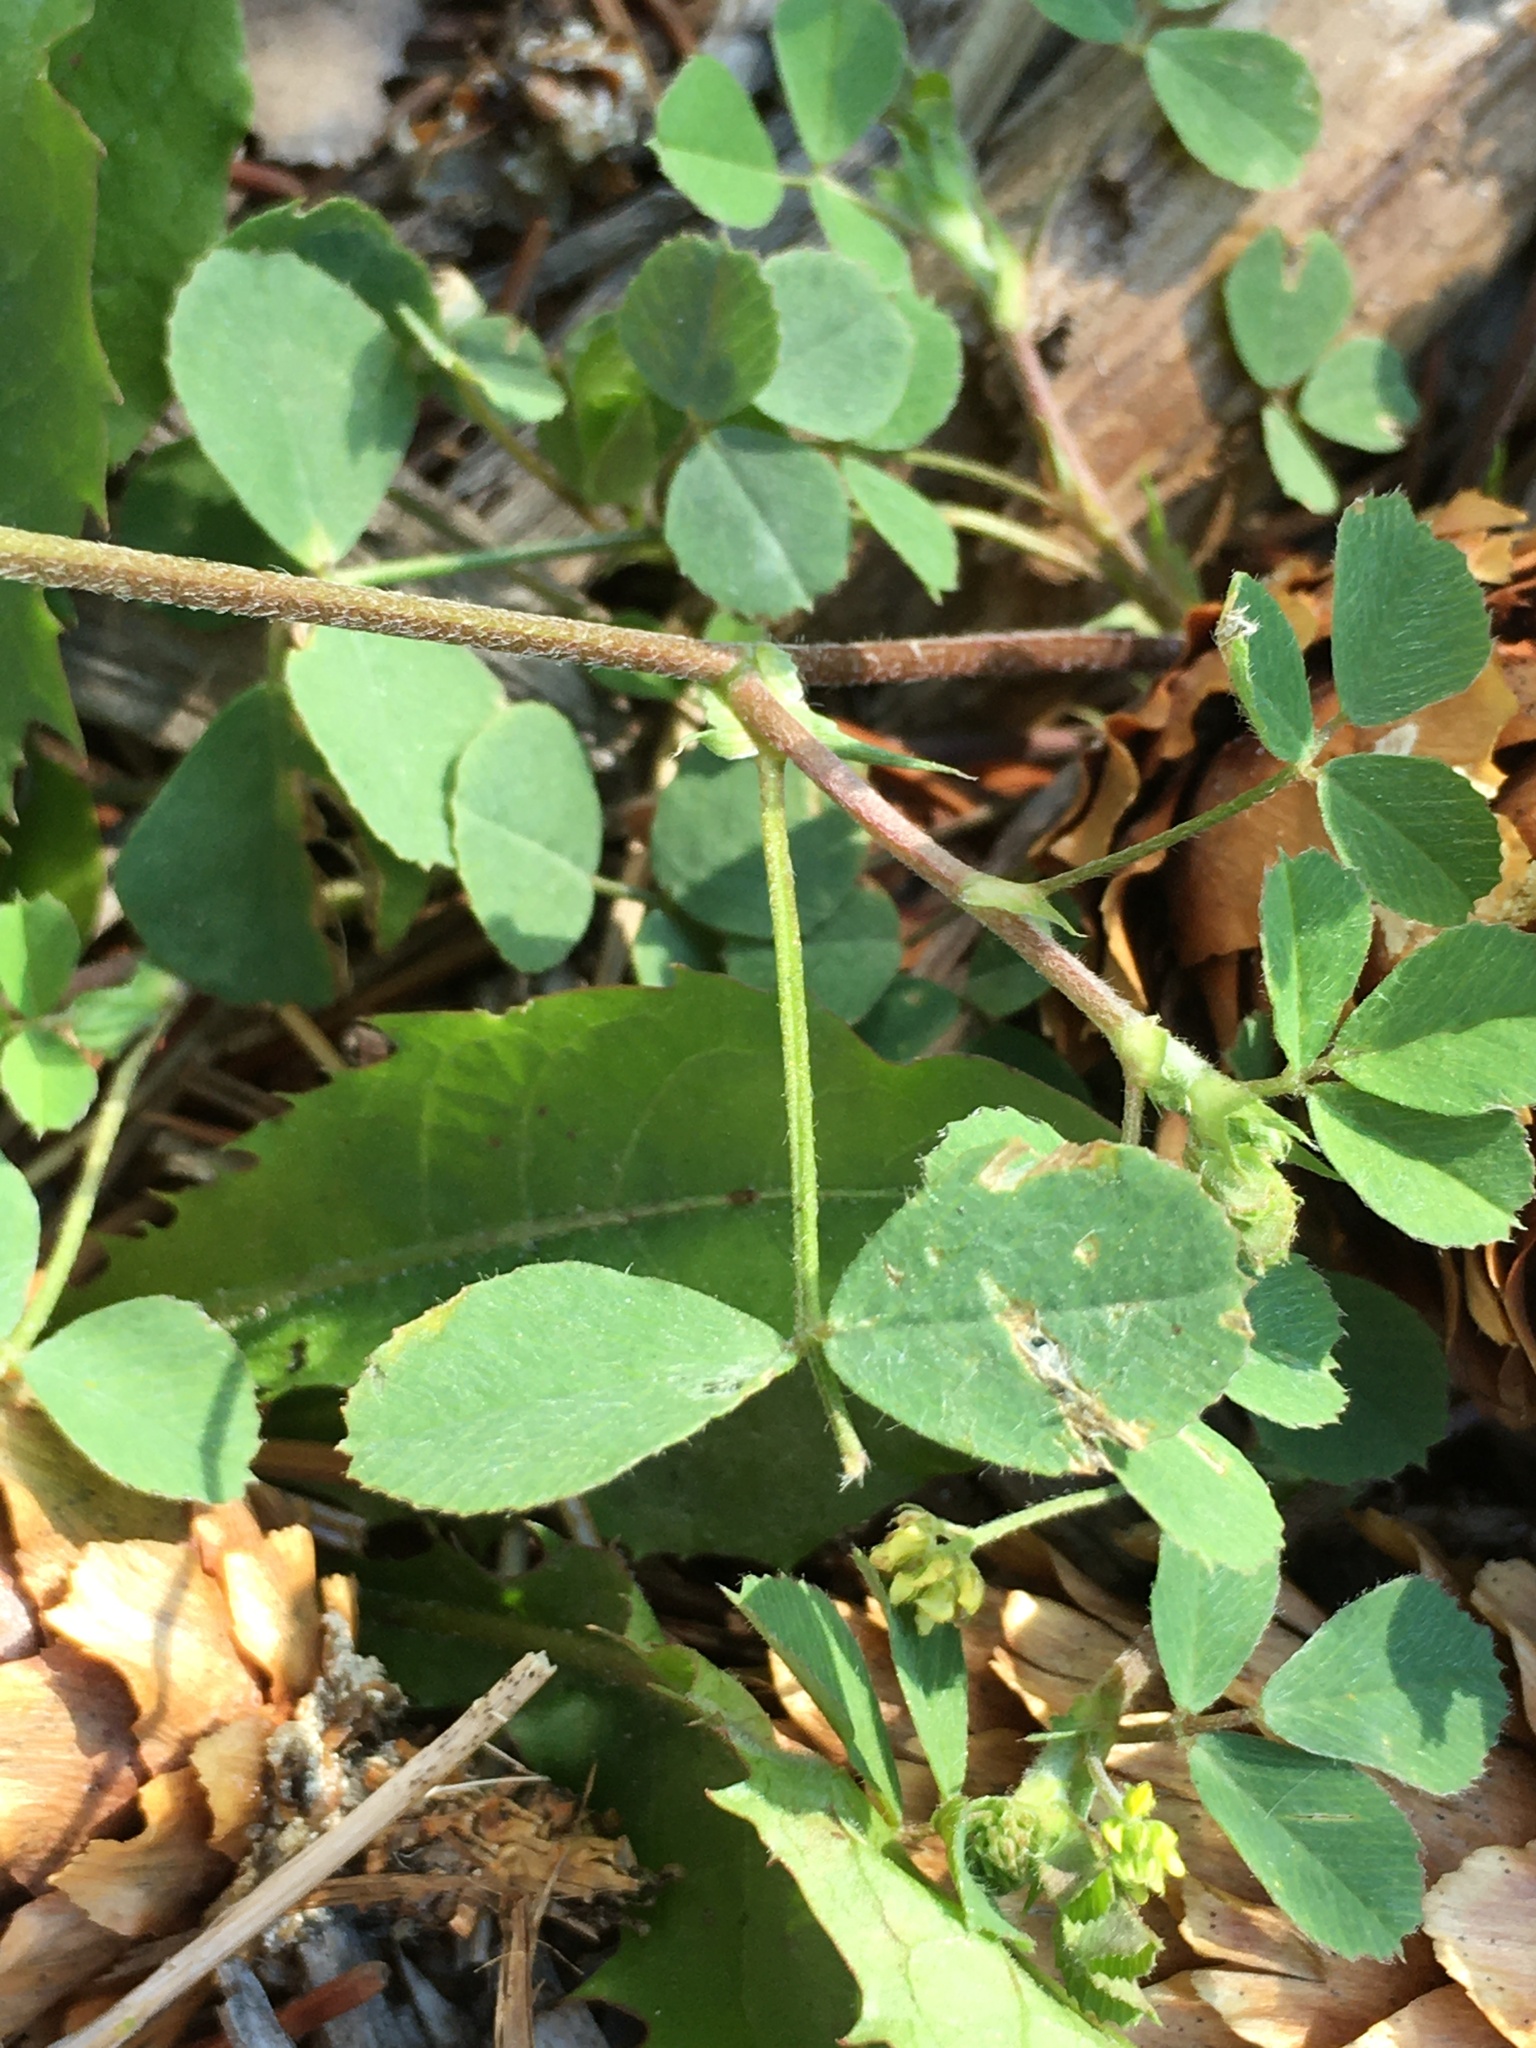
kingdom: Plantae
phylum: Tracheophyta
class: Magnoliopsida
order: Fabales
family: Fabaceae
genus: Medicago
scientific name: Medicago lupulina
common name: Black medick
